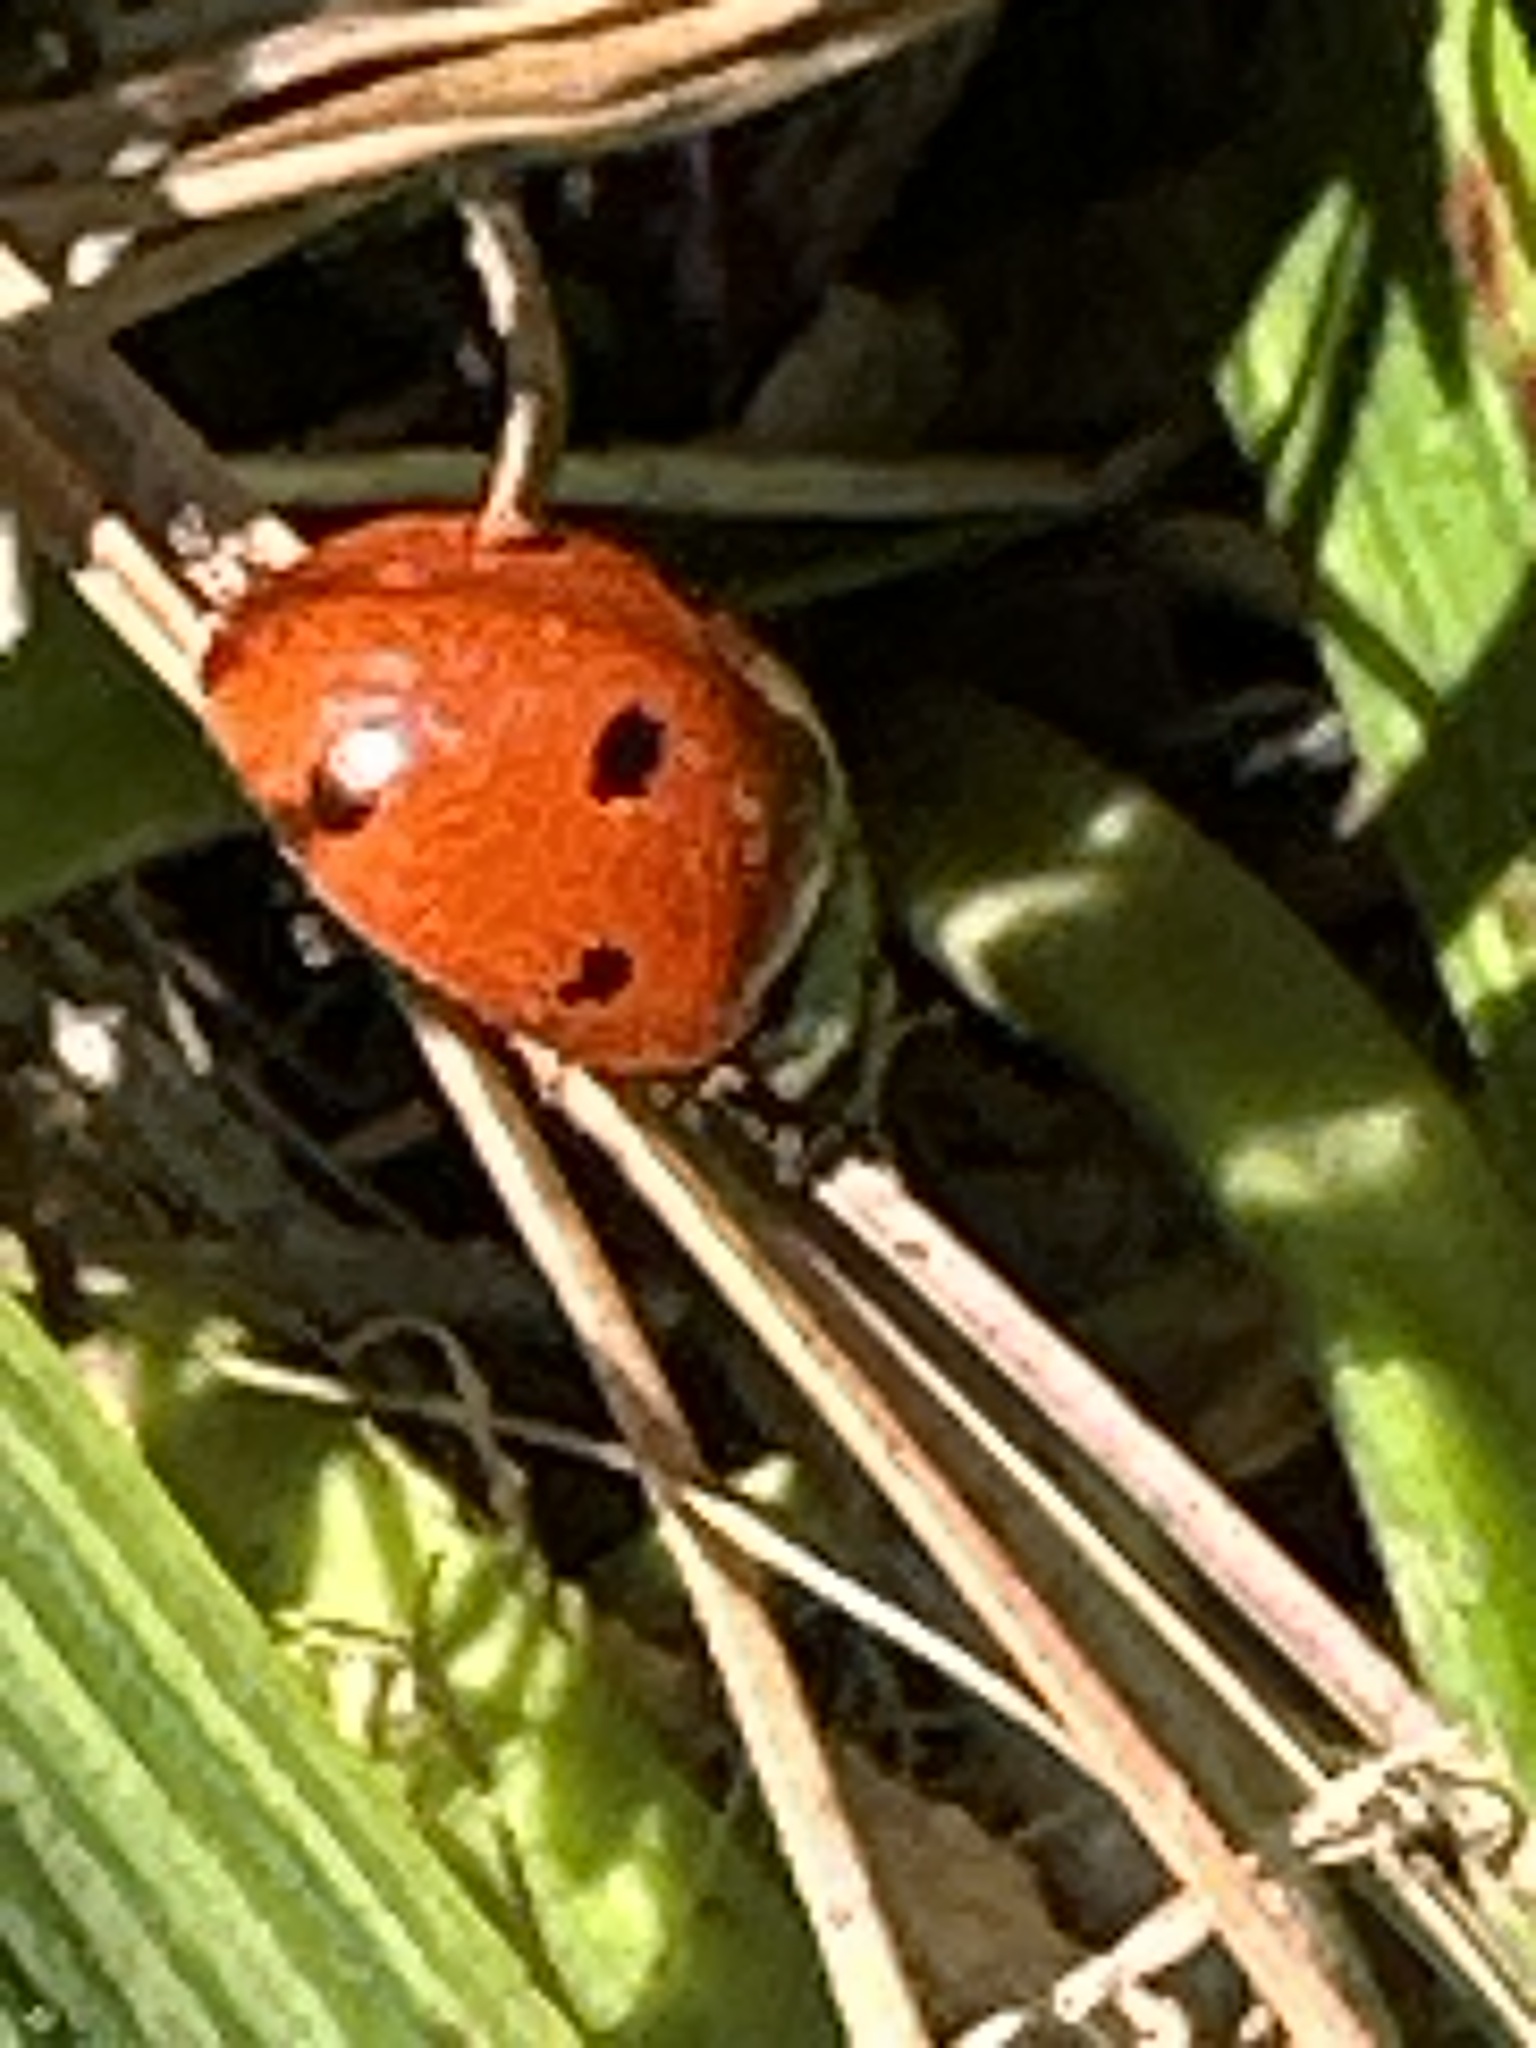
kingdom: Animalia
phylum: Arthropoda
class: Insecta
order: Coleoptera
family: Coccinellidae
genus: Coccinella
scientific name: Coccinella septempunctata
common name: Sevenspotted lady beetle
